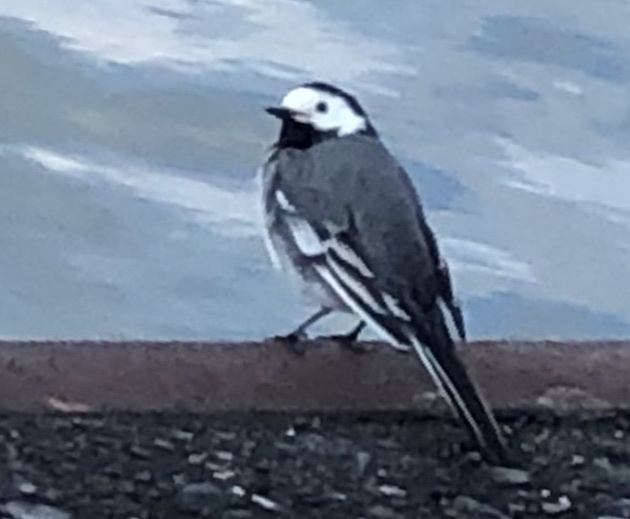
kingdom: Animalia
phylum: Chordata
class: Aves
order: Passeriformes
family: Motacillidae
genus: Motacilla
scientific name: Motacilla alba
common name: White wagtail
